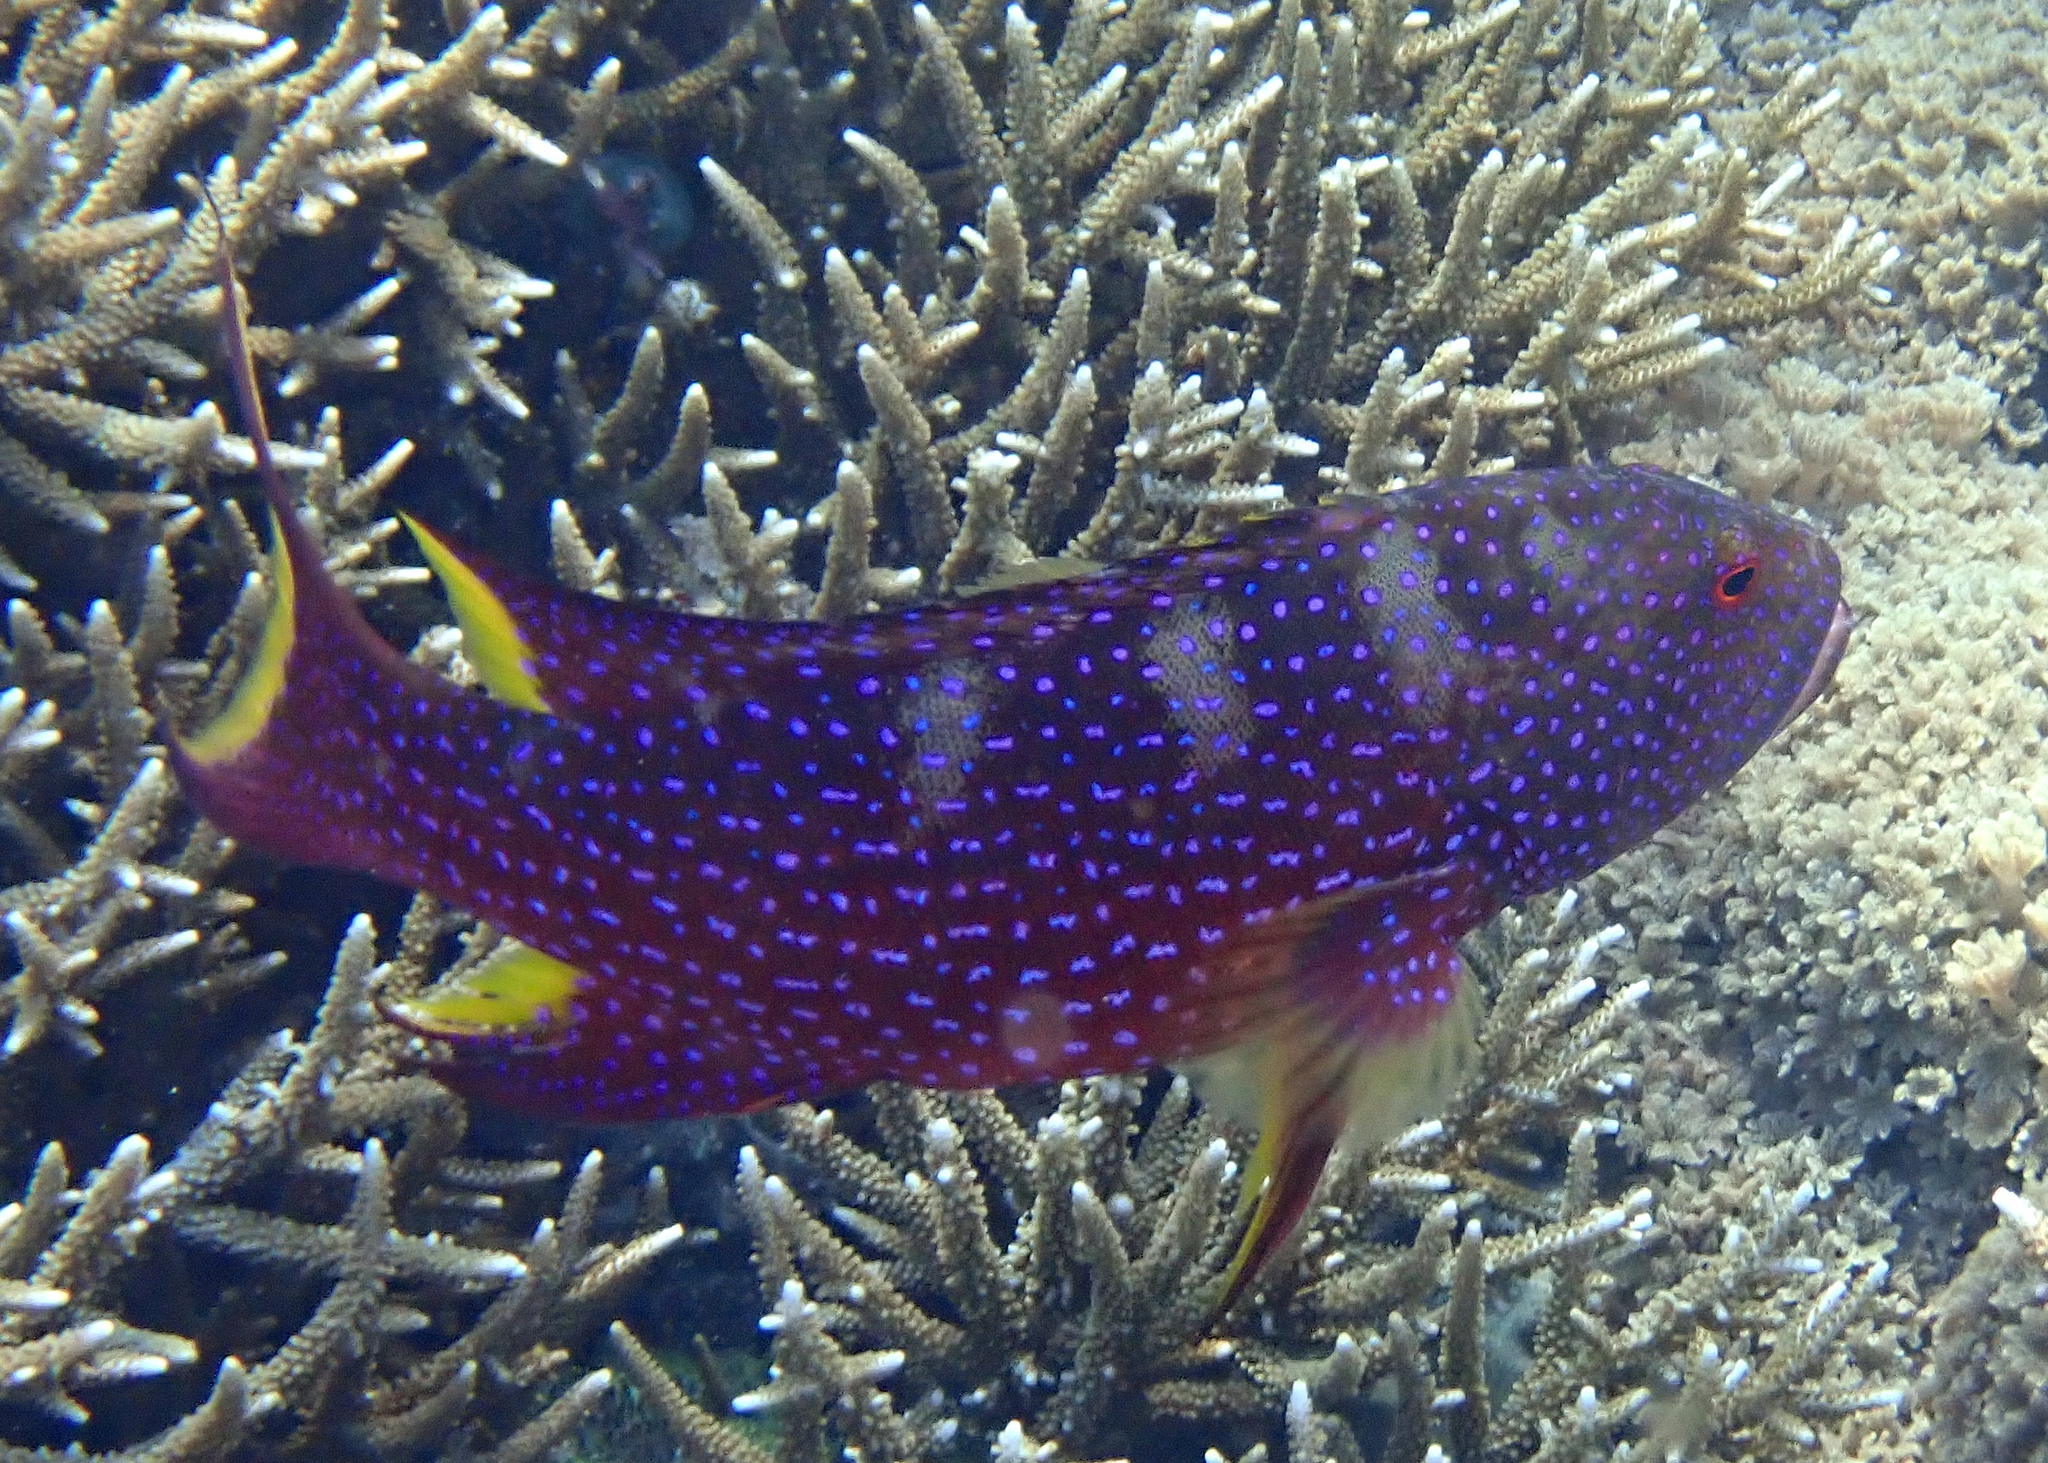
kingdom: Animalia
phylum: Chordata
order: Perciformes
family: Serranidae
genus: Variola
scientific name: Variola louti
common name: Yellow-edged lyretail
